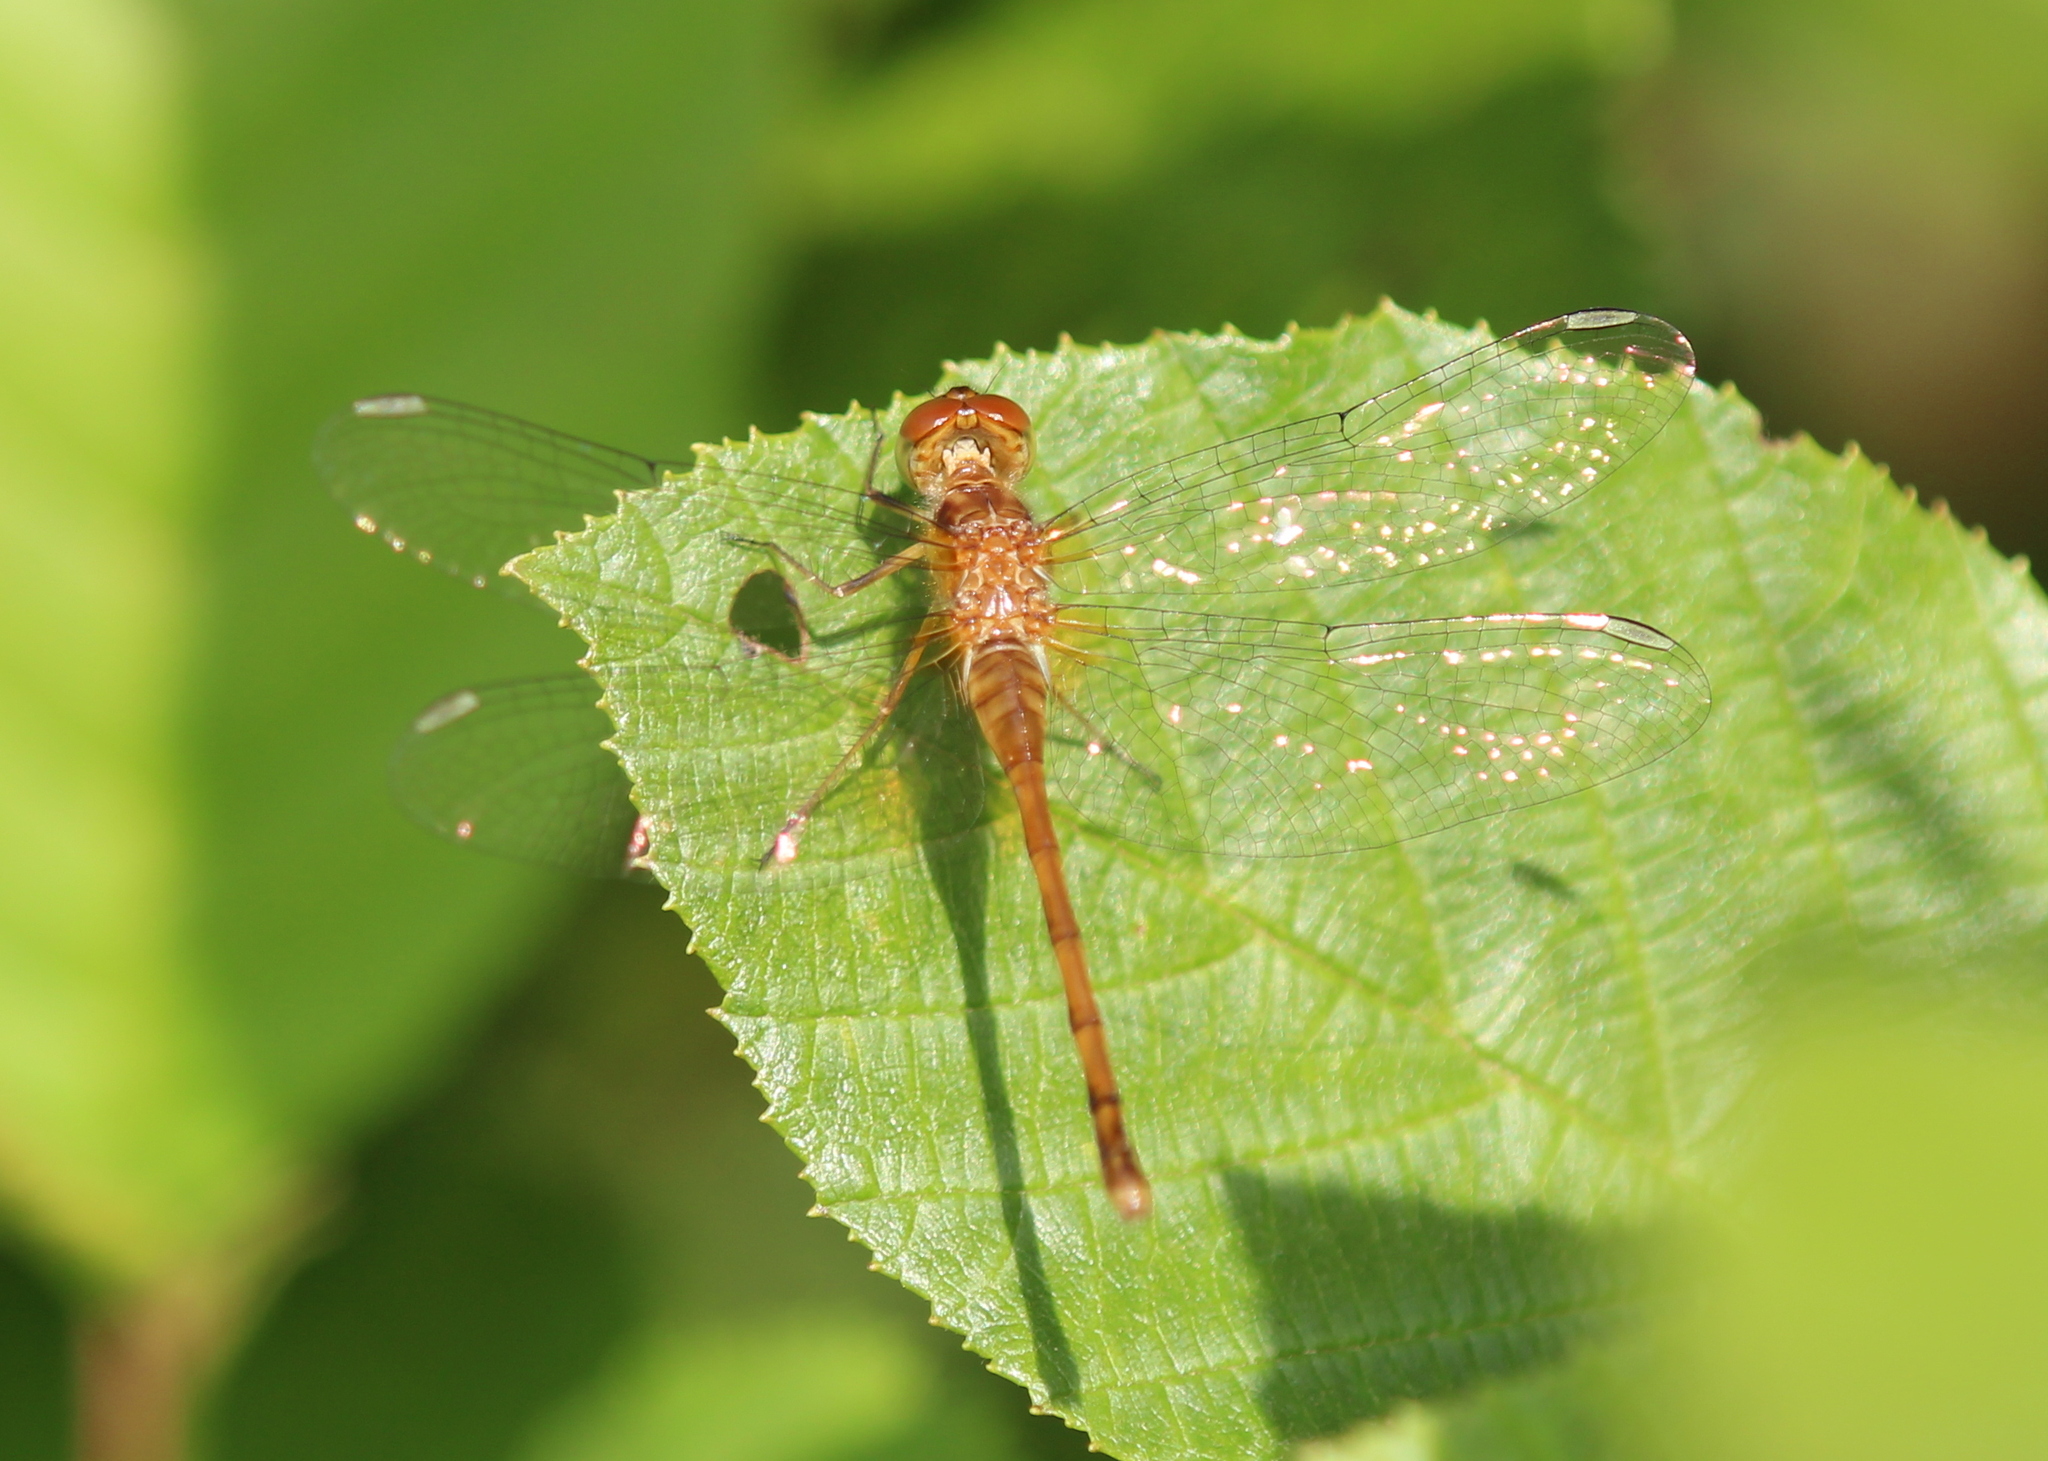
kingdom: Animalia
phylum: Arthropoda
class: Insecta
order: Odonata
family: Libellulidae
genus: Sympetrum
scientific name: Sympetrum vicinum
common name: Autumn meadowhawk
